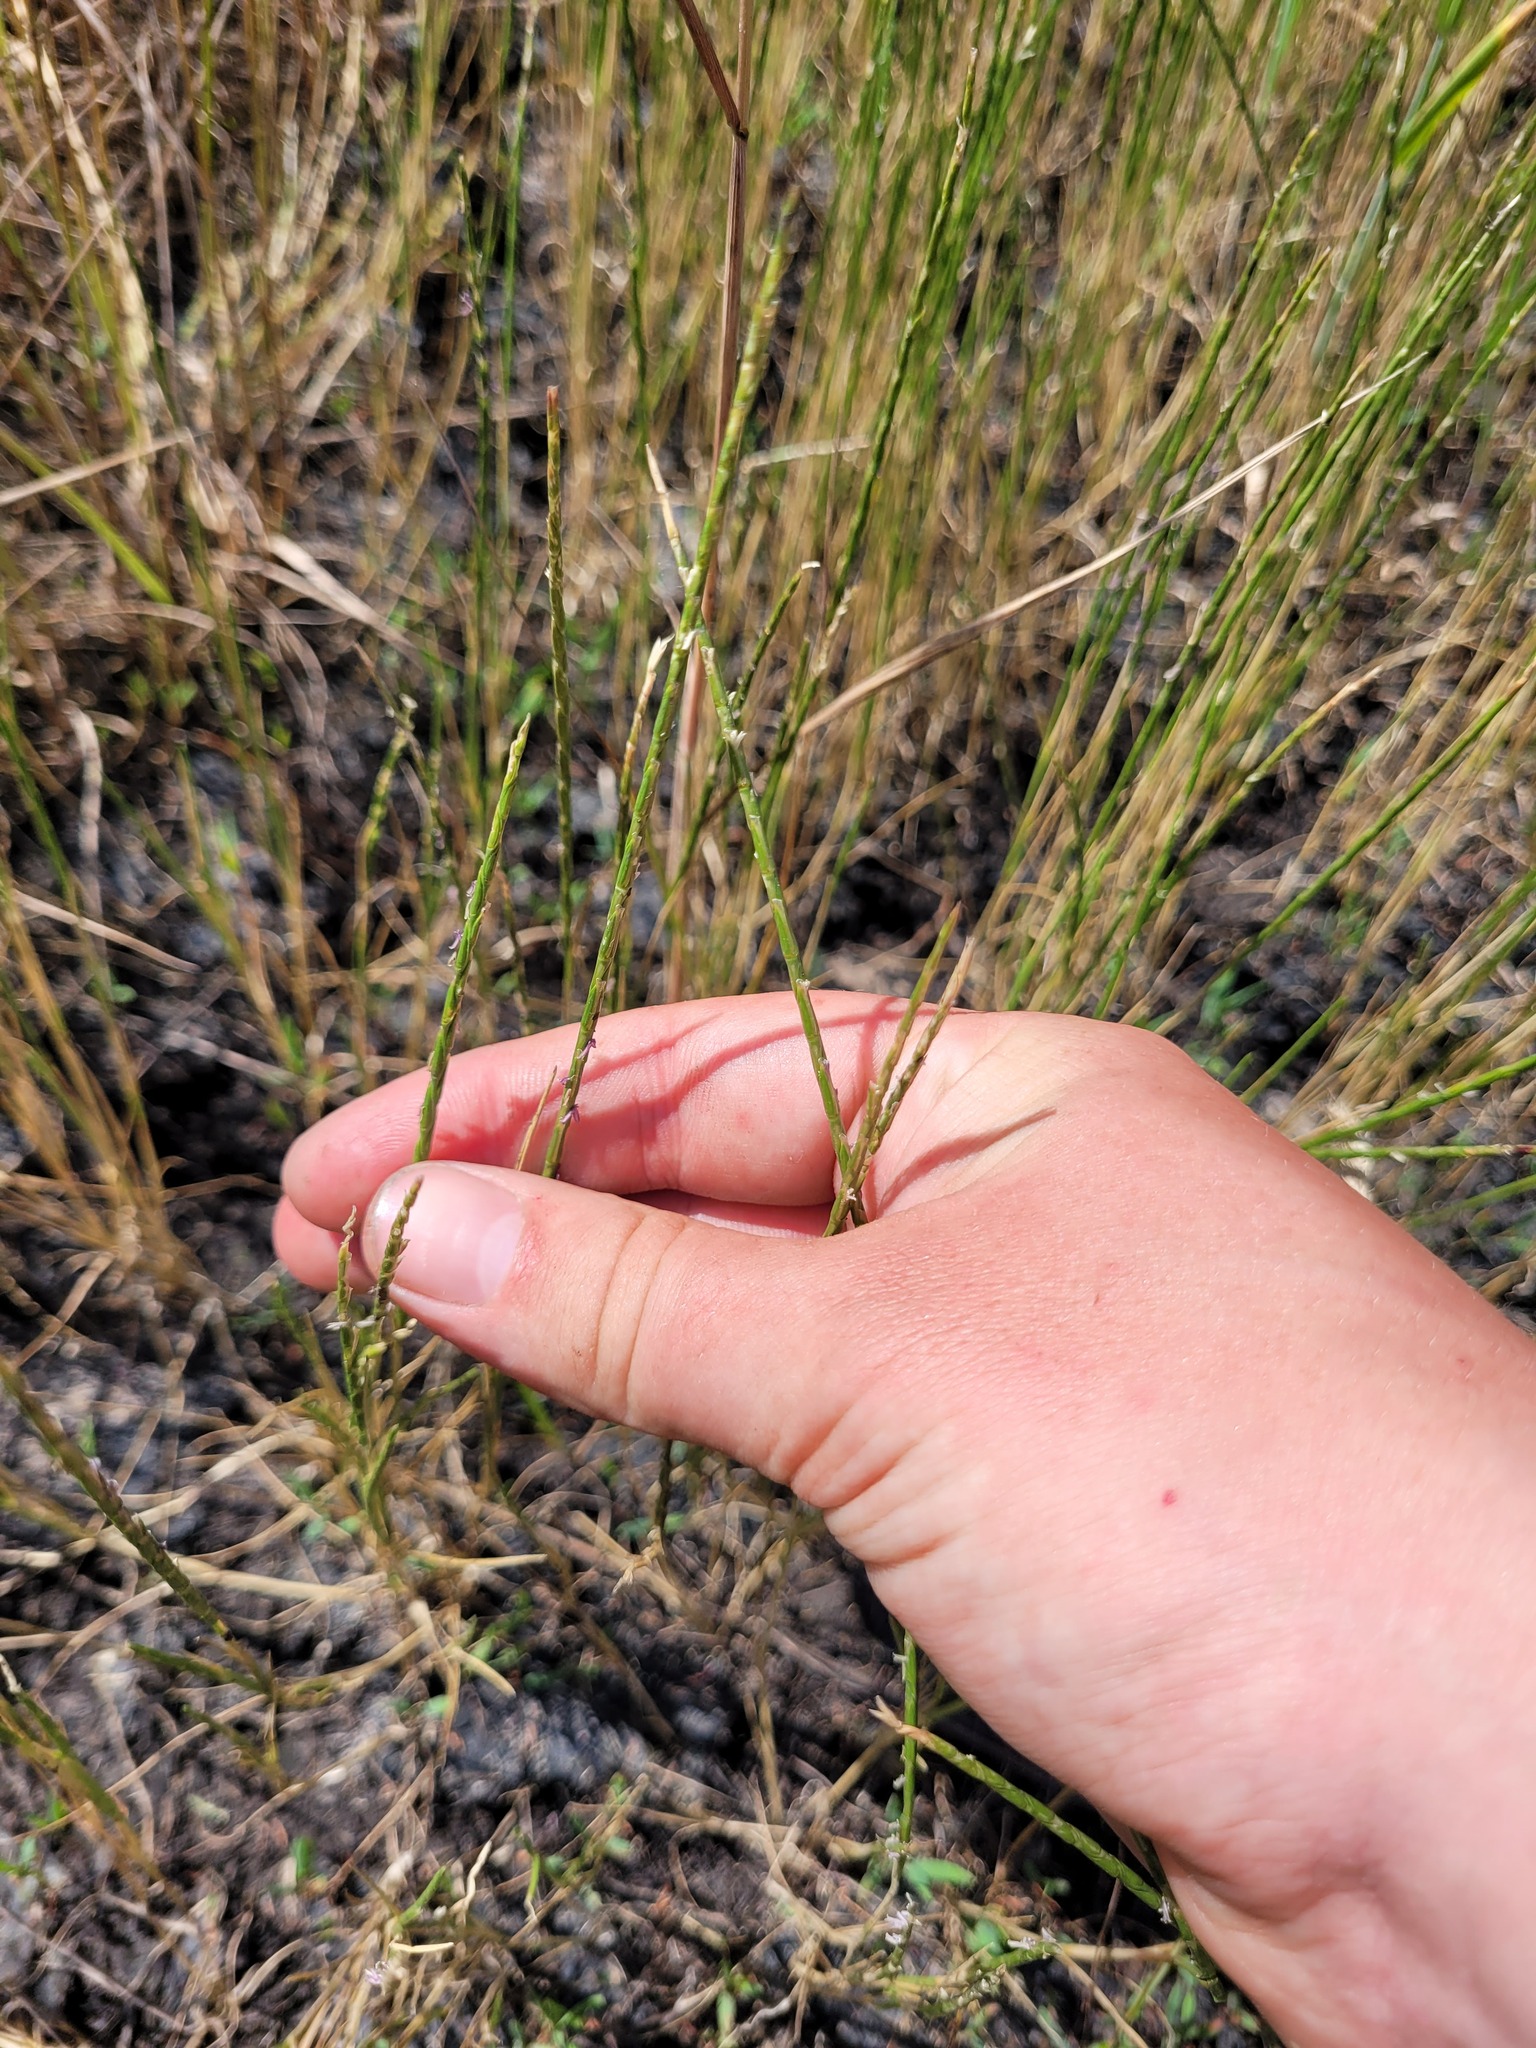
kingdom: Plantae
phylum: Tracheophyta
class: Liliopsida
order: Poales
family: Poaceae
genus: Pholiurus
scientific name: Pholiurus pannonicus
